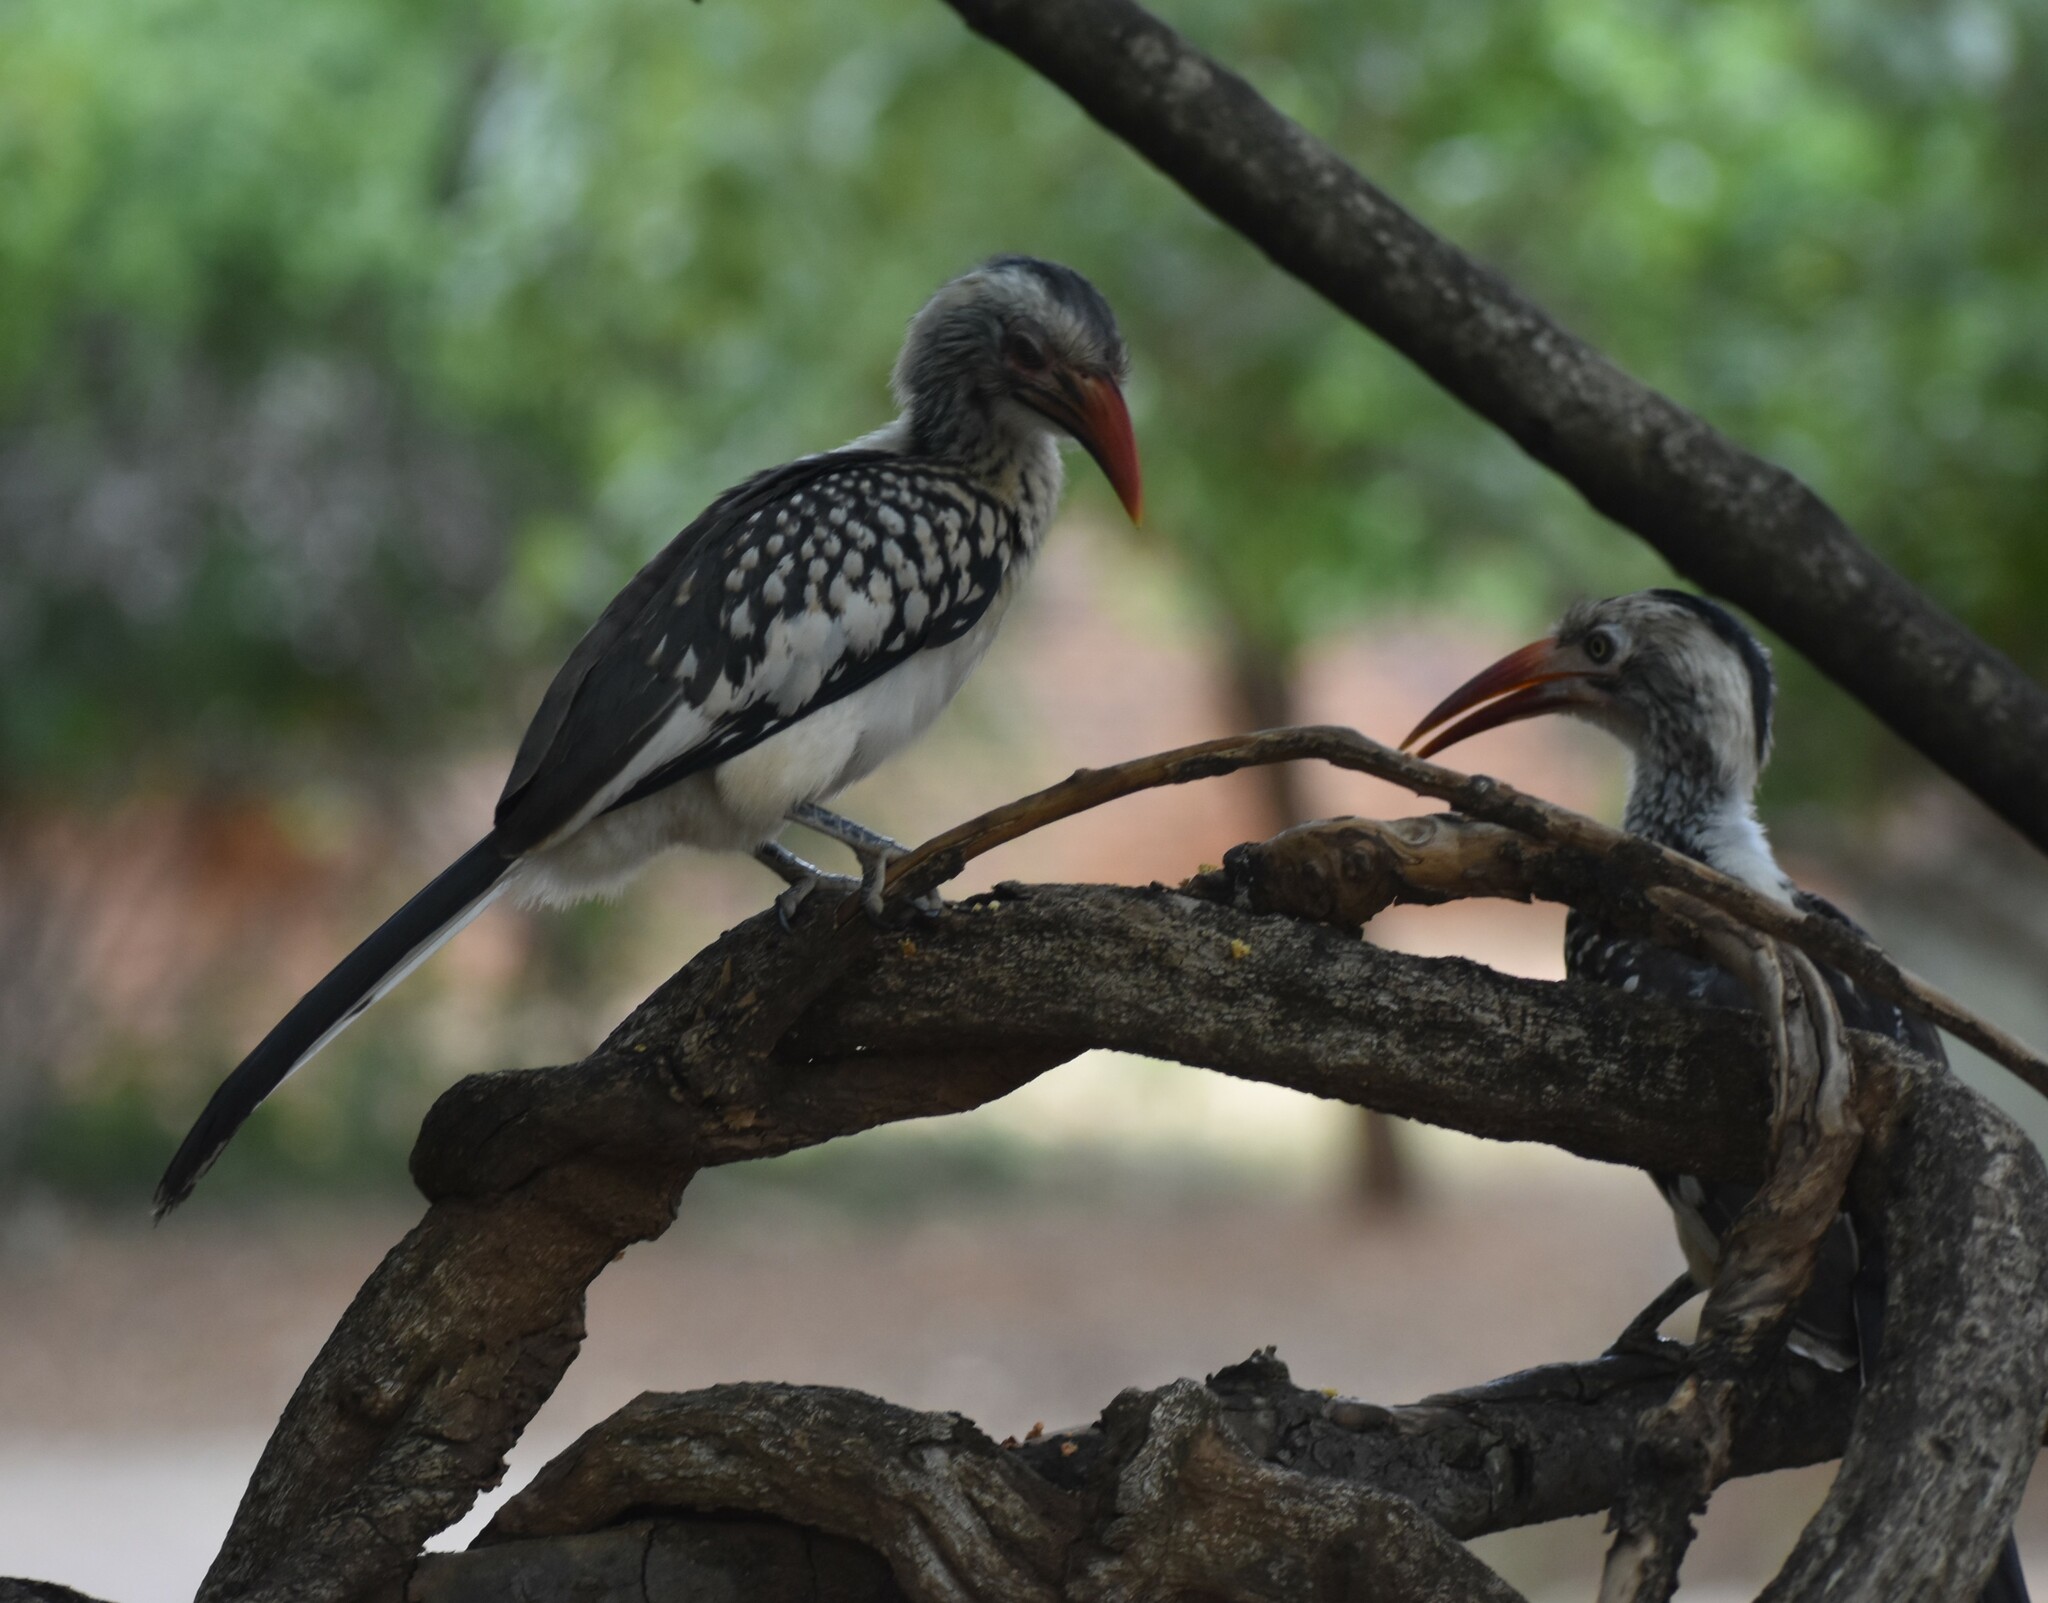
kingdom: Animalia
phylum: Chordata
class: Aves
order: Bucerotiformes
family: Bucerotidae
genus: Tockus
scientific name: Tockus rufirostris
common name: Southern red-billed hornbill
